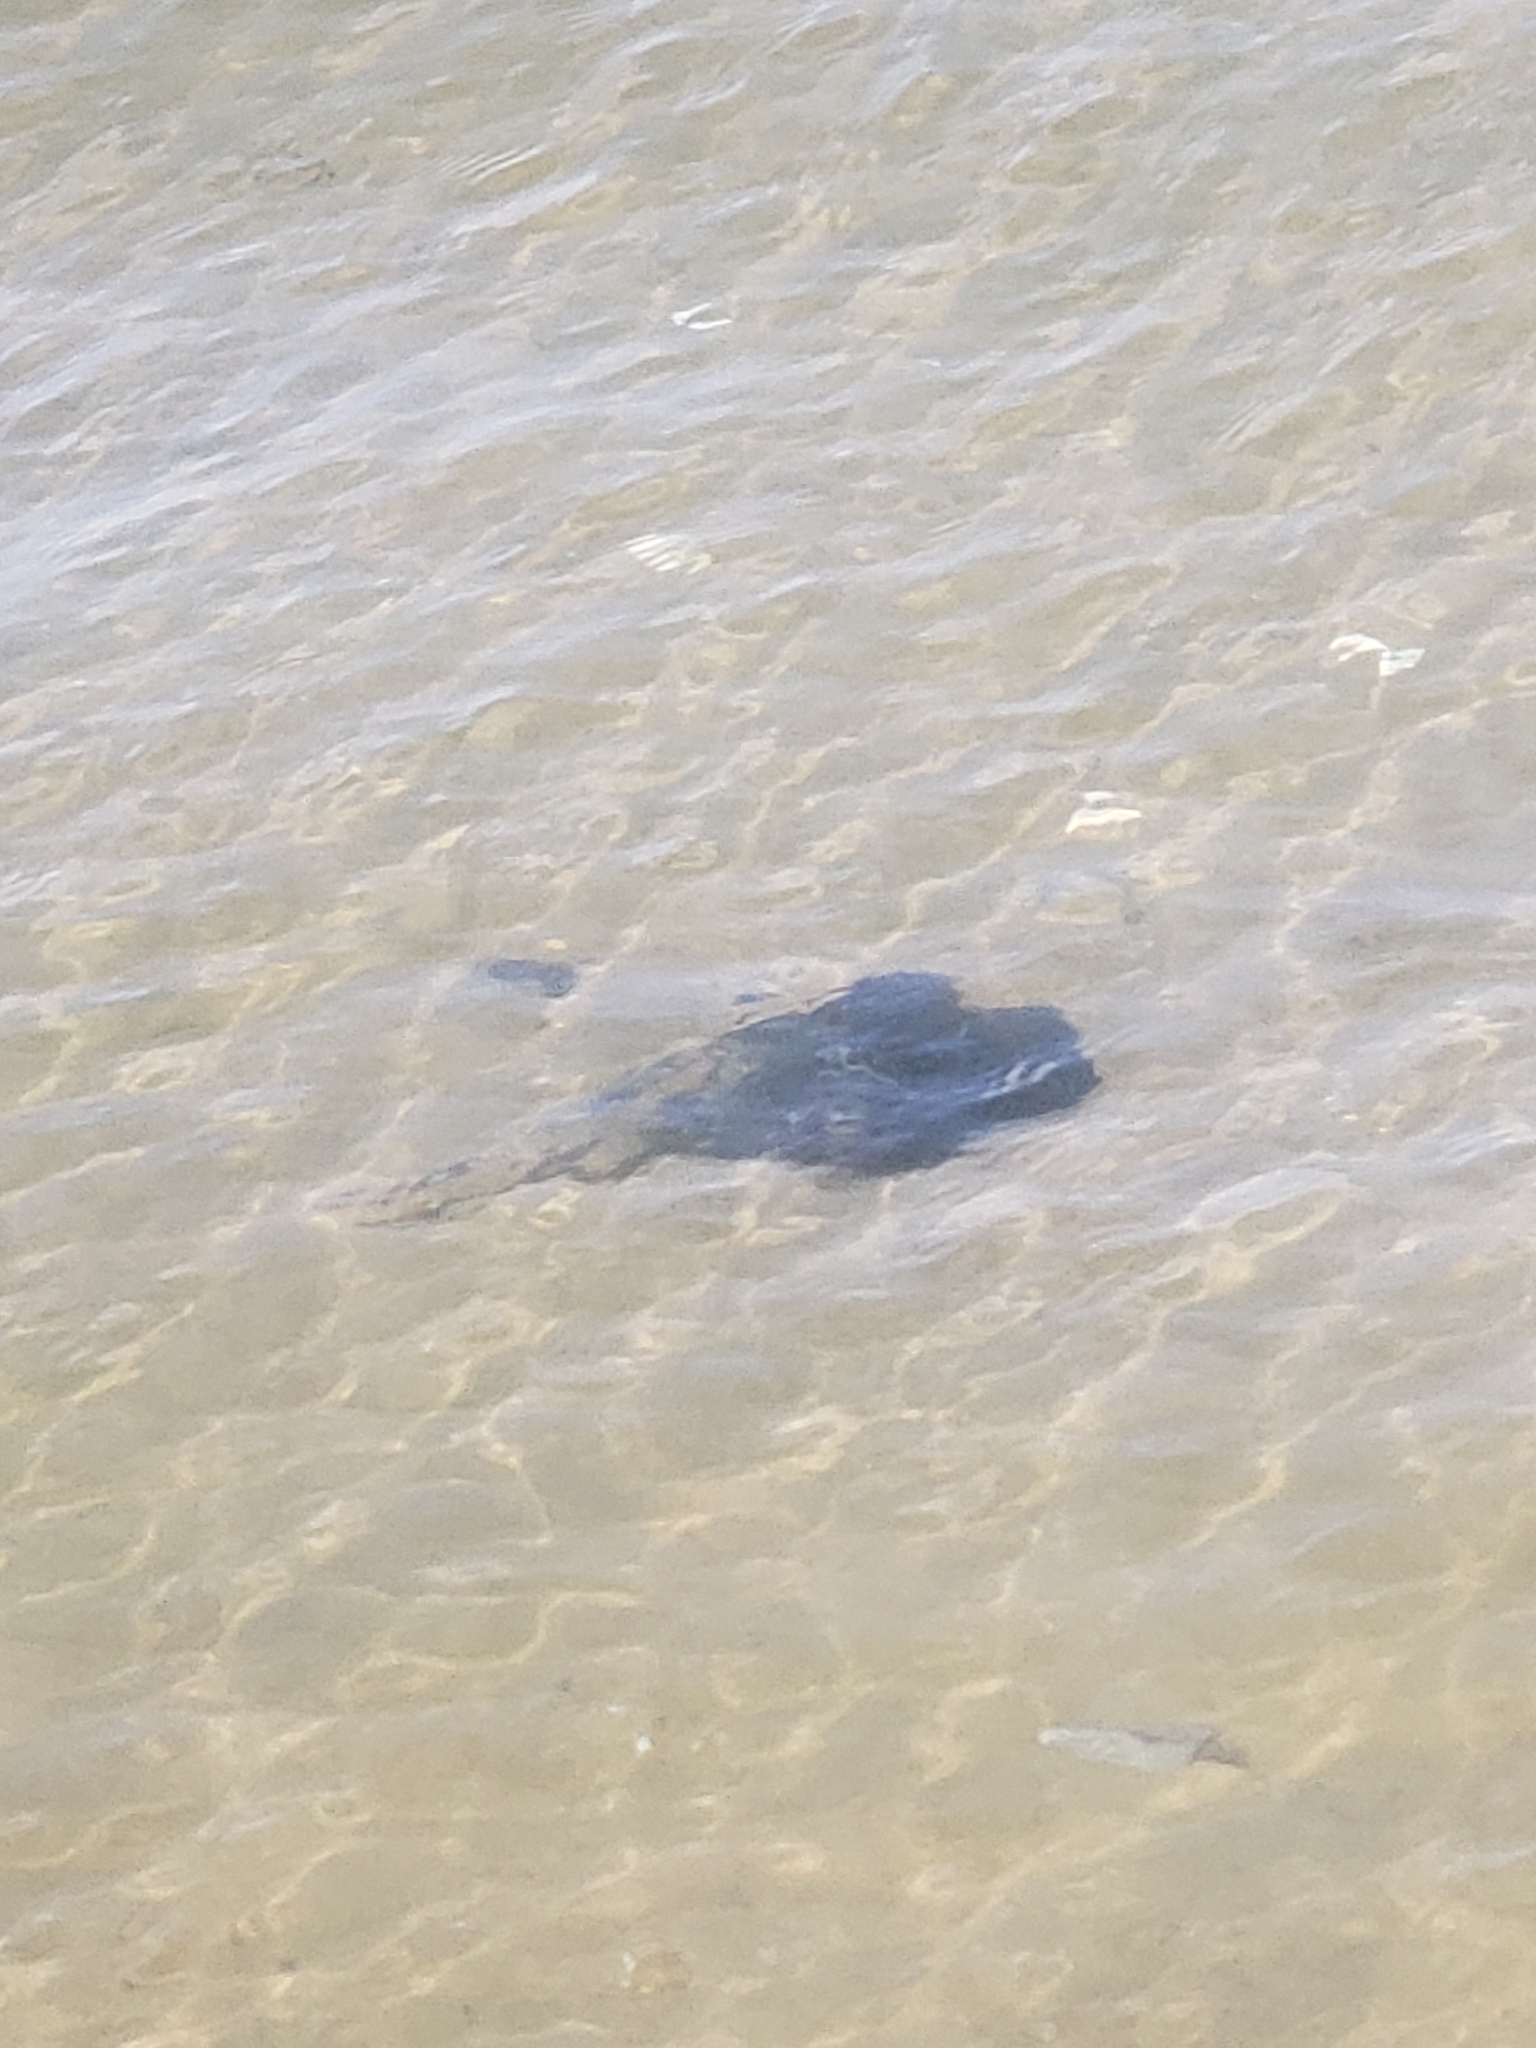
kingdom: Animalia
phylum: Arthropoda
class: Merostomata
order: Xiphosurida
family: Limulidae
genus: Limulus
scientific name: Limulus polyphemus
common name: Horseshoe crab
